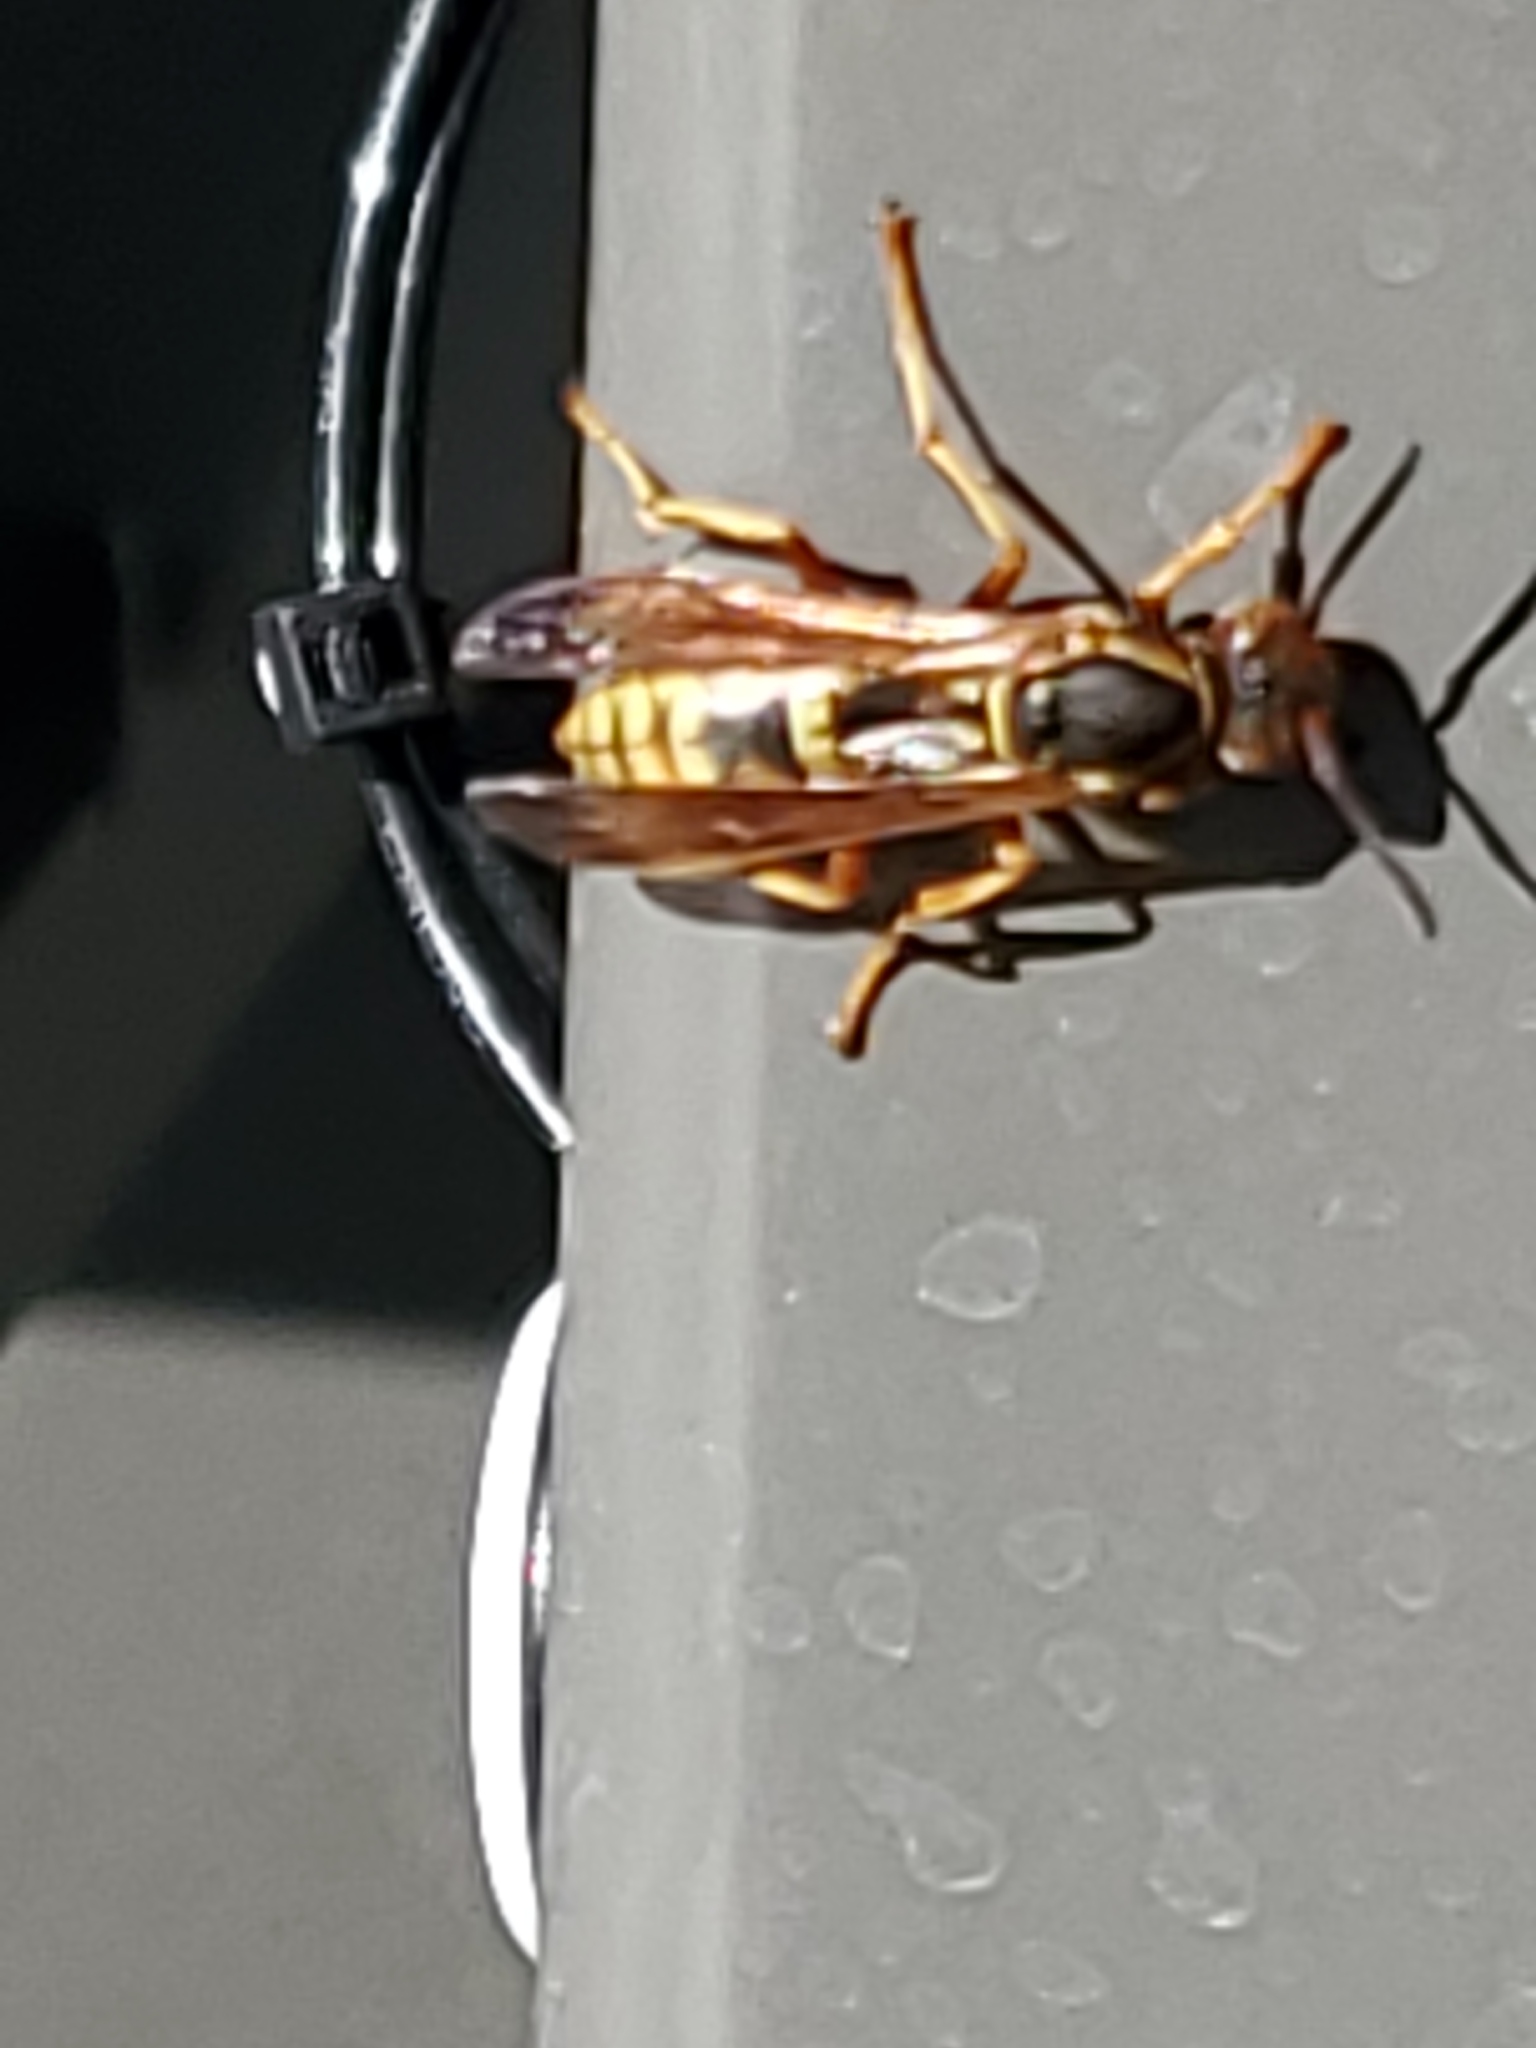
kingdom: Animalia
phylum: Arthropoda
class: Insecta
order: Hymenoptera
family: Eumenidae
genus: Polistes
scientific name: Polistes aurifer
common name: Paper wasp
